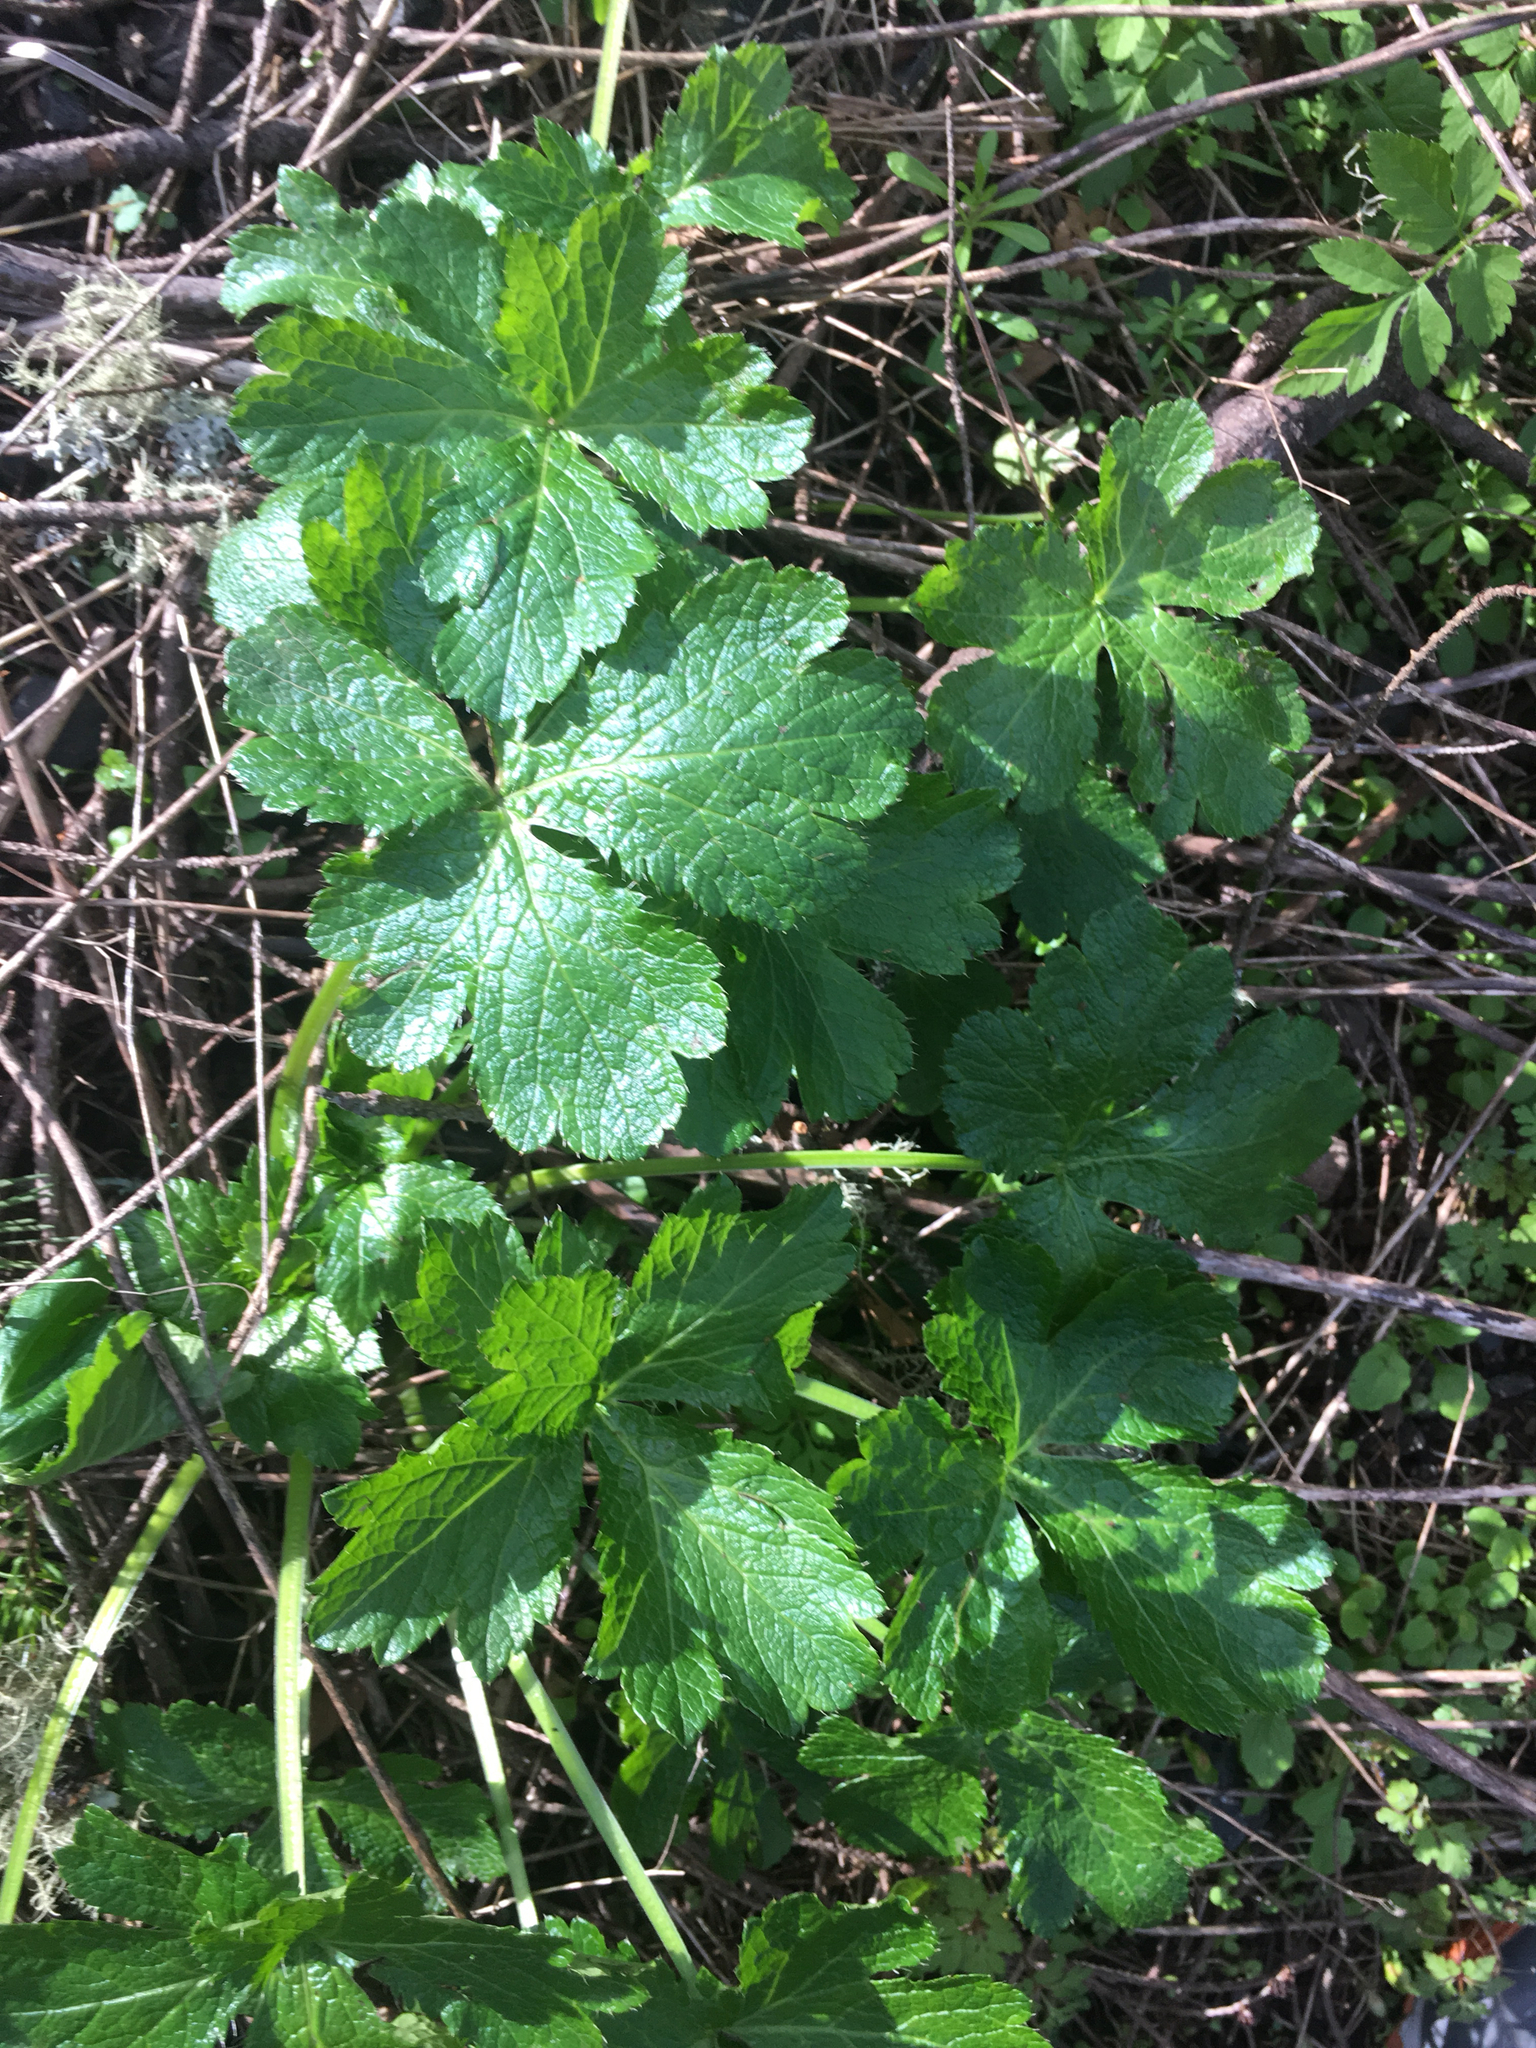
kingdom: Plantae
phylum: Tracheophyta
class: Magnoliopsida
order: Apiales
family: Apiaceae
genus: Sanicula
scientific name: Sanicula crassicaulis
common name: Western snakeroot
